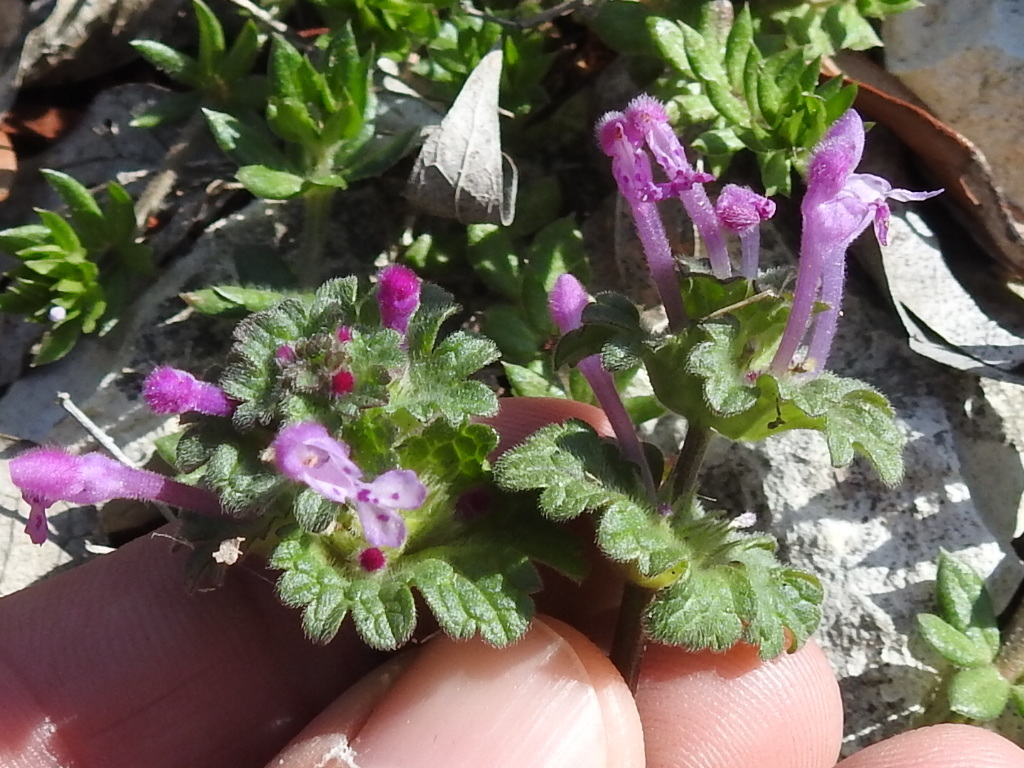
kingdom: Plantae
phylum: Tracheophyta
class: Magnoliopsida
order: Lamiales
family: Lamiaceae
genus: Lamium
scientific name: Lamium amplexicaule
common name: Henbit dead-nettle
